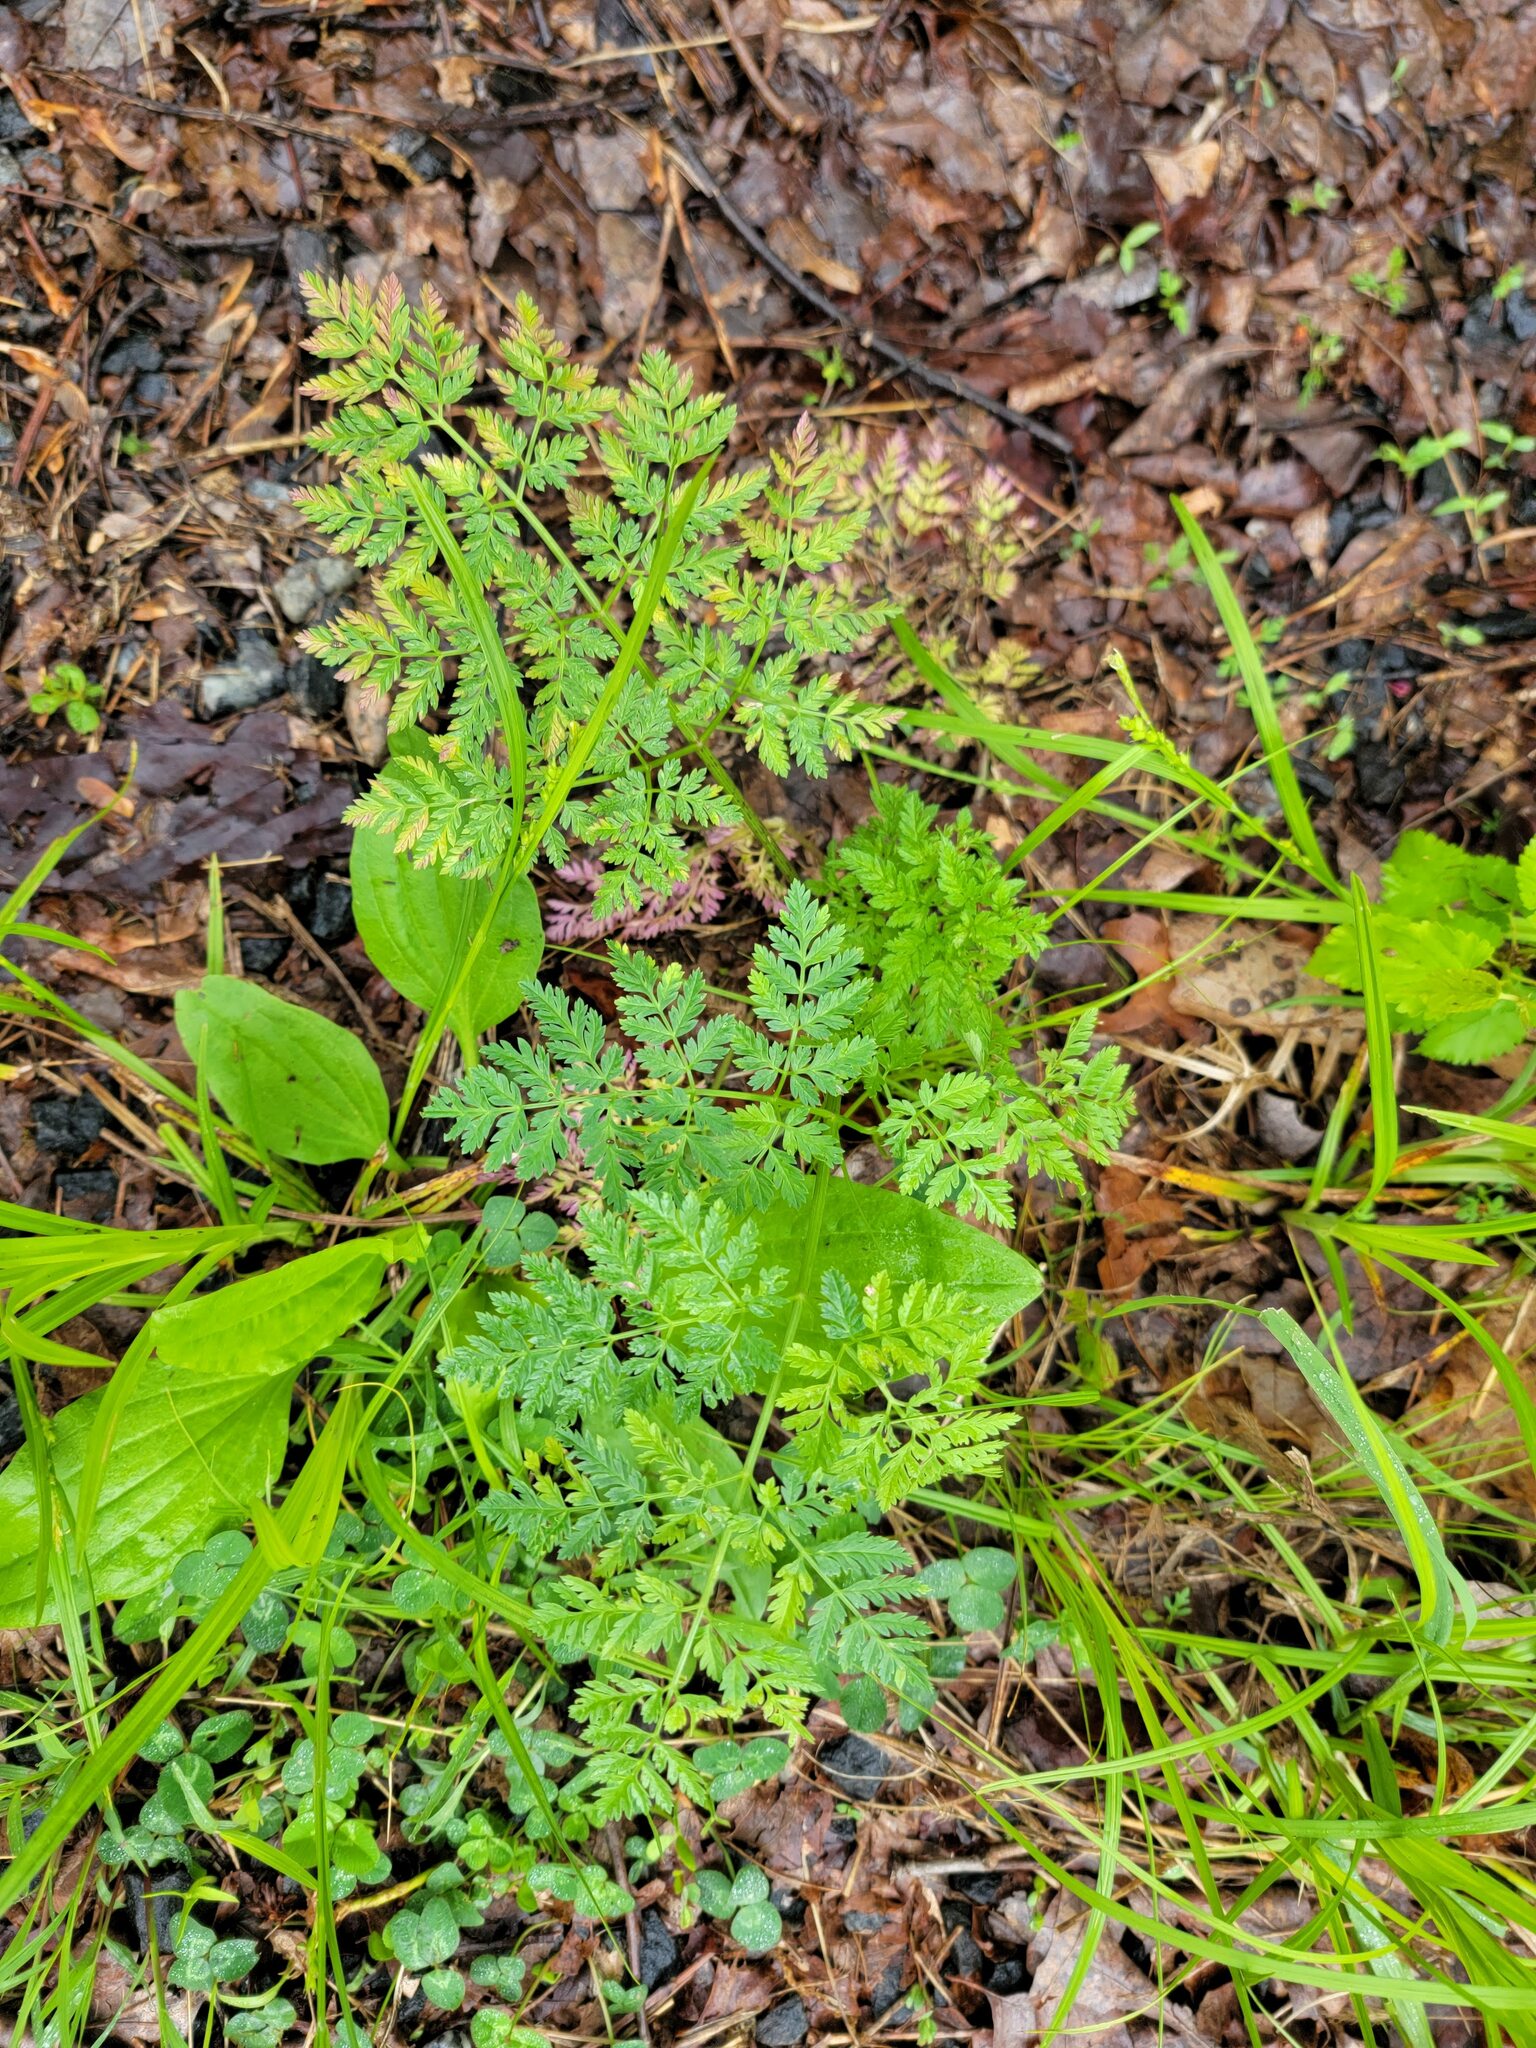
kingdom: Plantae
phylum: Tracheophyta
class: Magnoliopsida
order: Apiales
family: Apiaceae
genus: Conium
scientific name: Conium maculatum
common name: Hemlock
